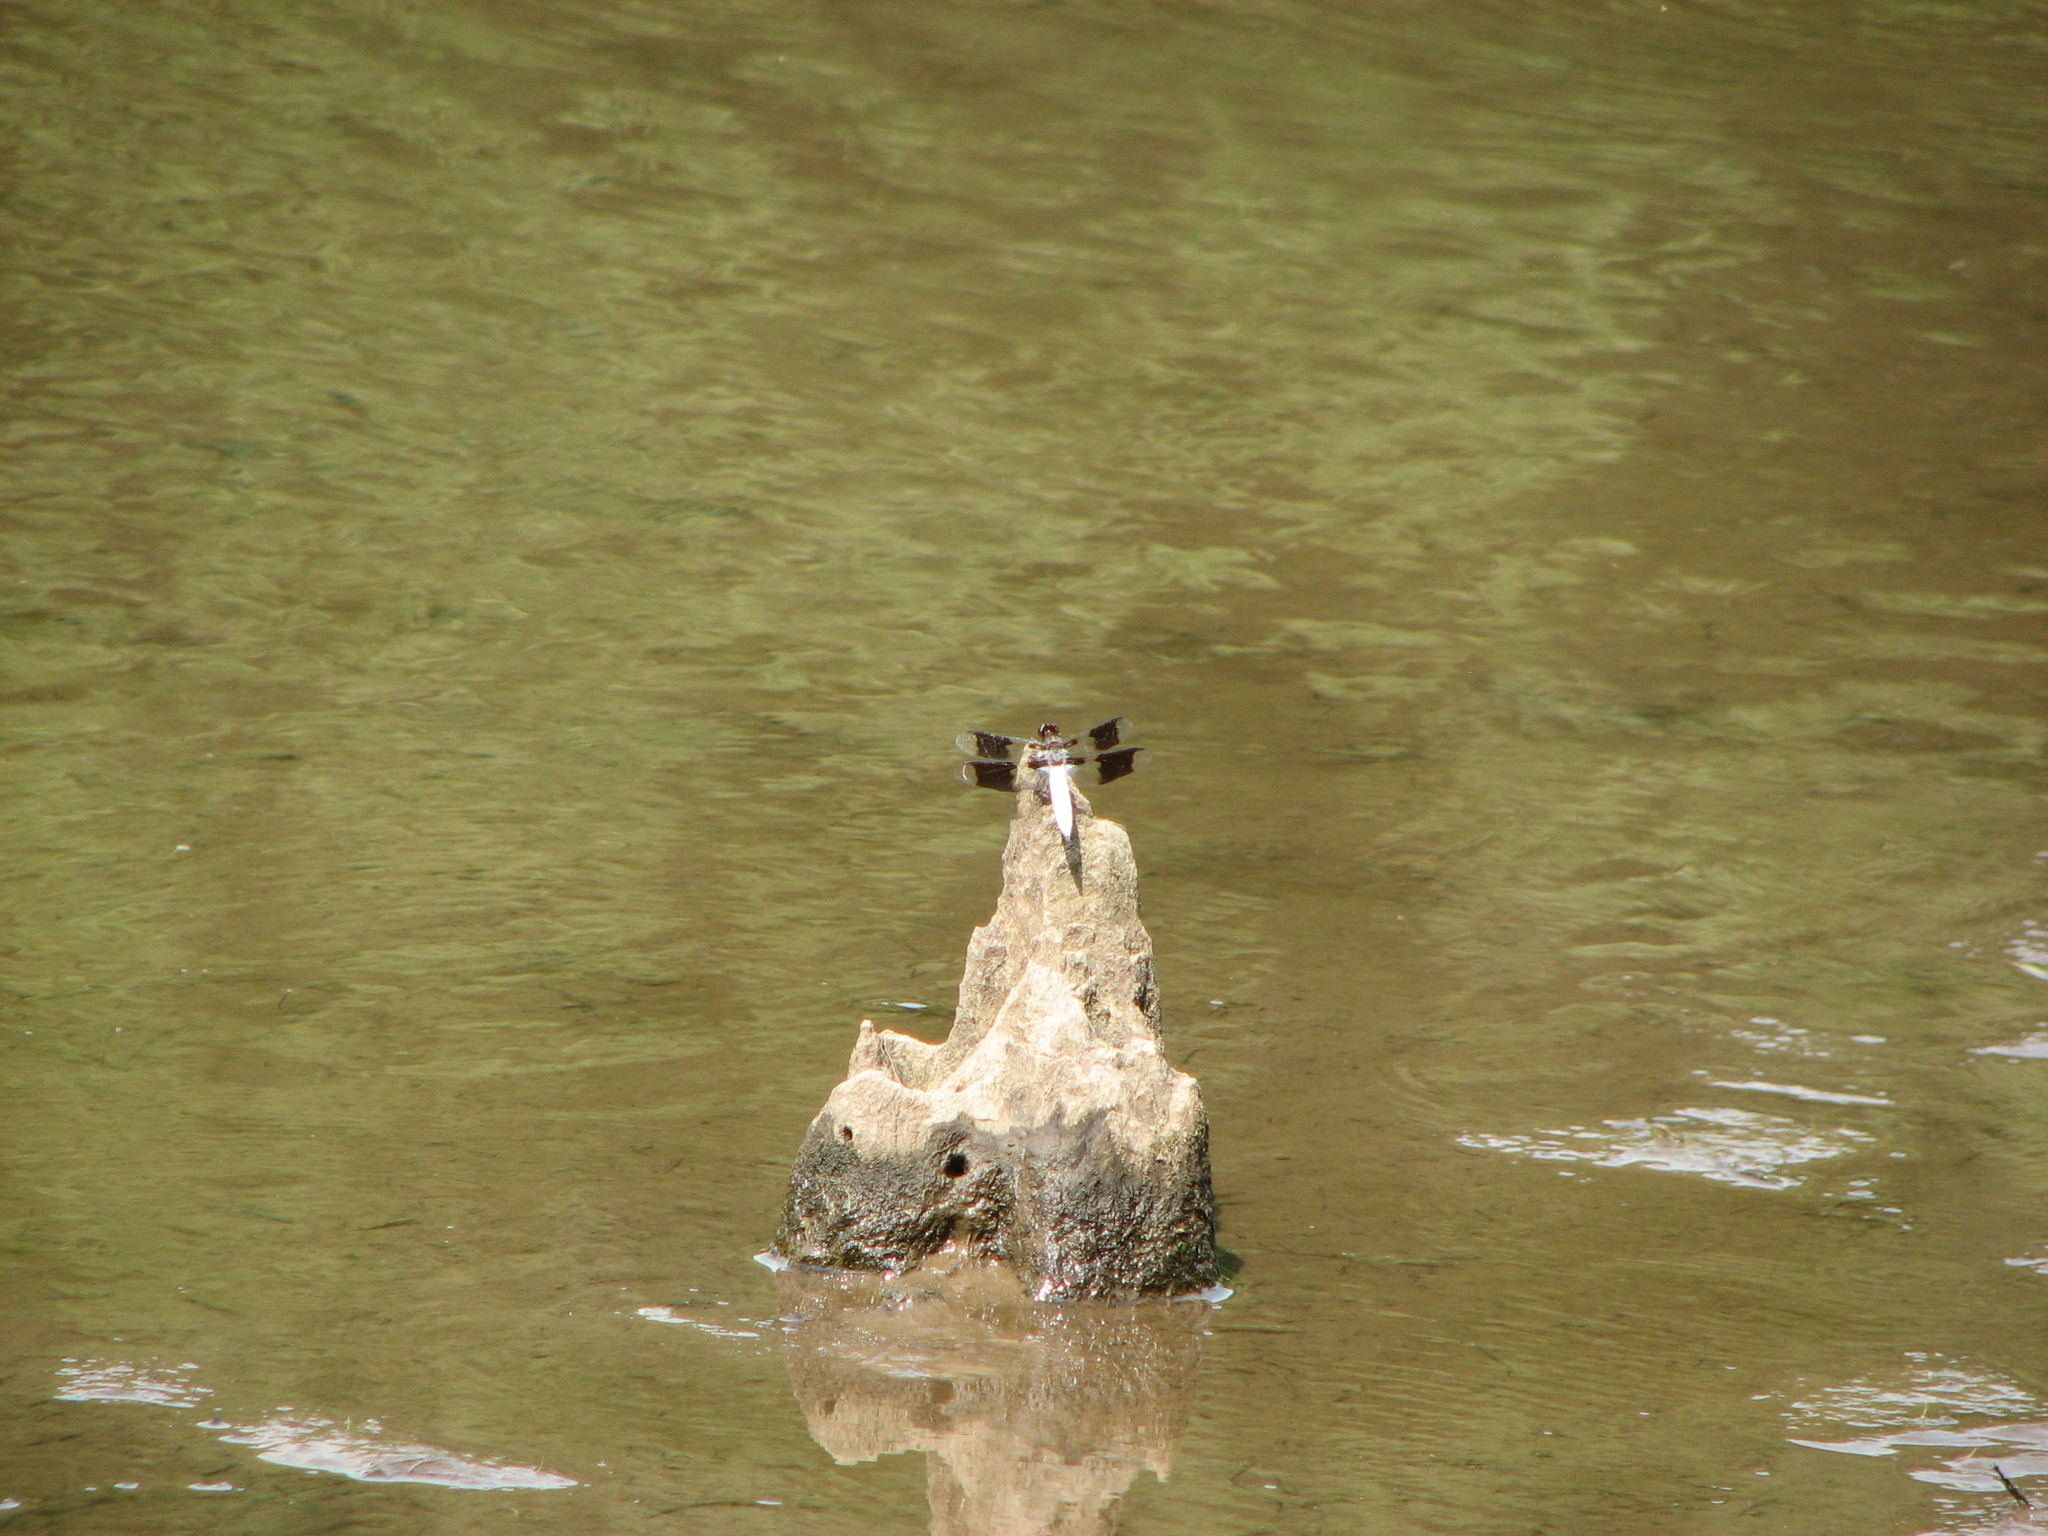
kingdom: Animalia
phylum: Arthropoda
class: Insecta
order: Odonata
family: Libellulidae
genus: Plathemis
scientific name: Plathemis lydia
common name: Common whitetail
